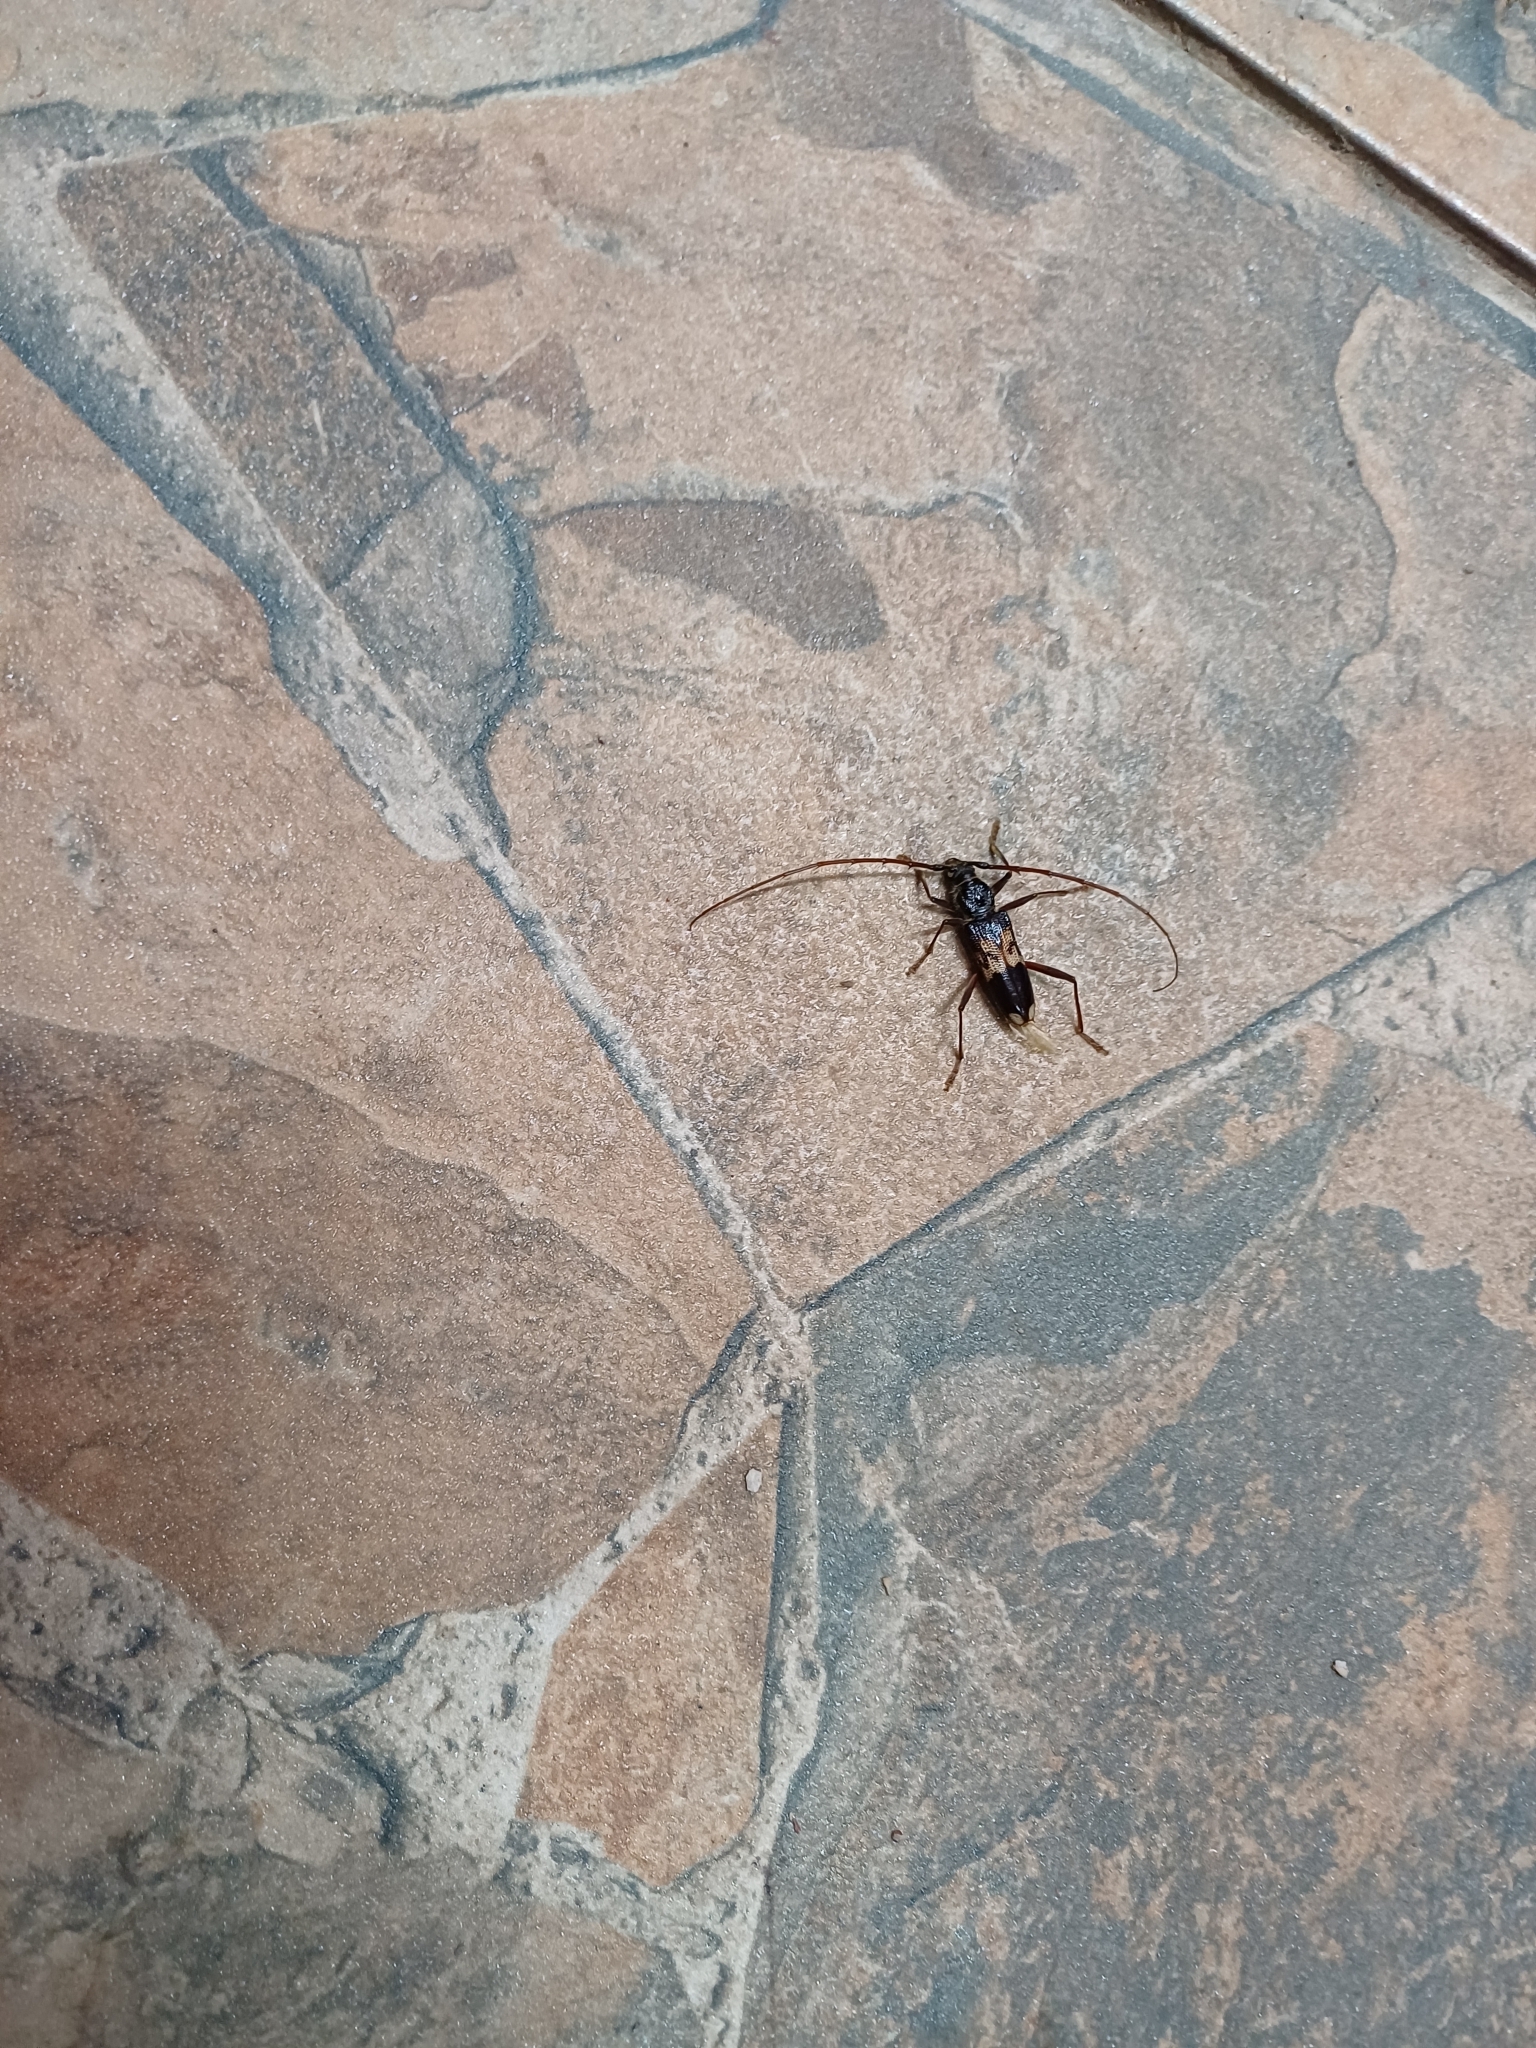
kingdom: Animalia
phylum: Arthropoda
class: Insecta
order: Coleoptera
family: Cerambycidae
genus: Phoracantha
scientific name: Phoracantha semipunctata
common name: Eucalyptus longhorn borer
